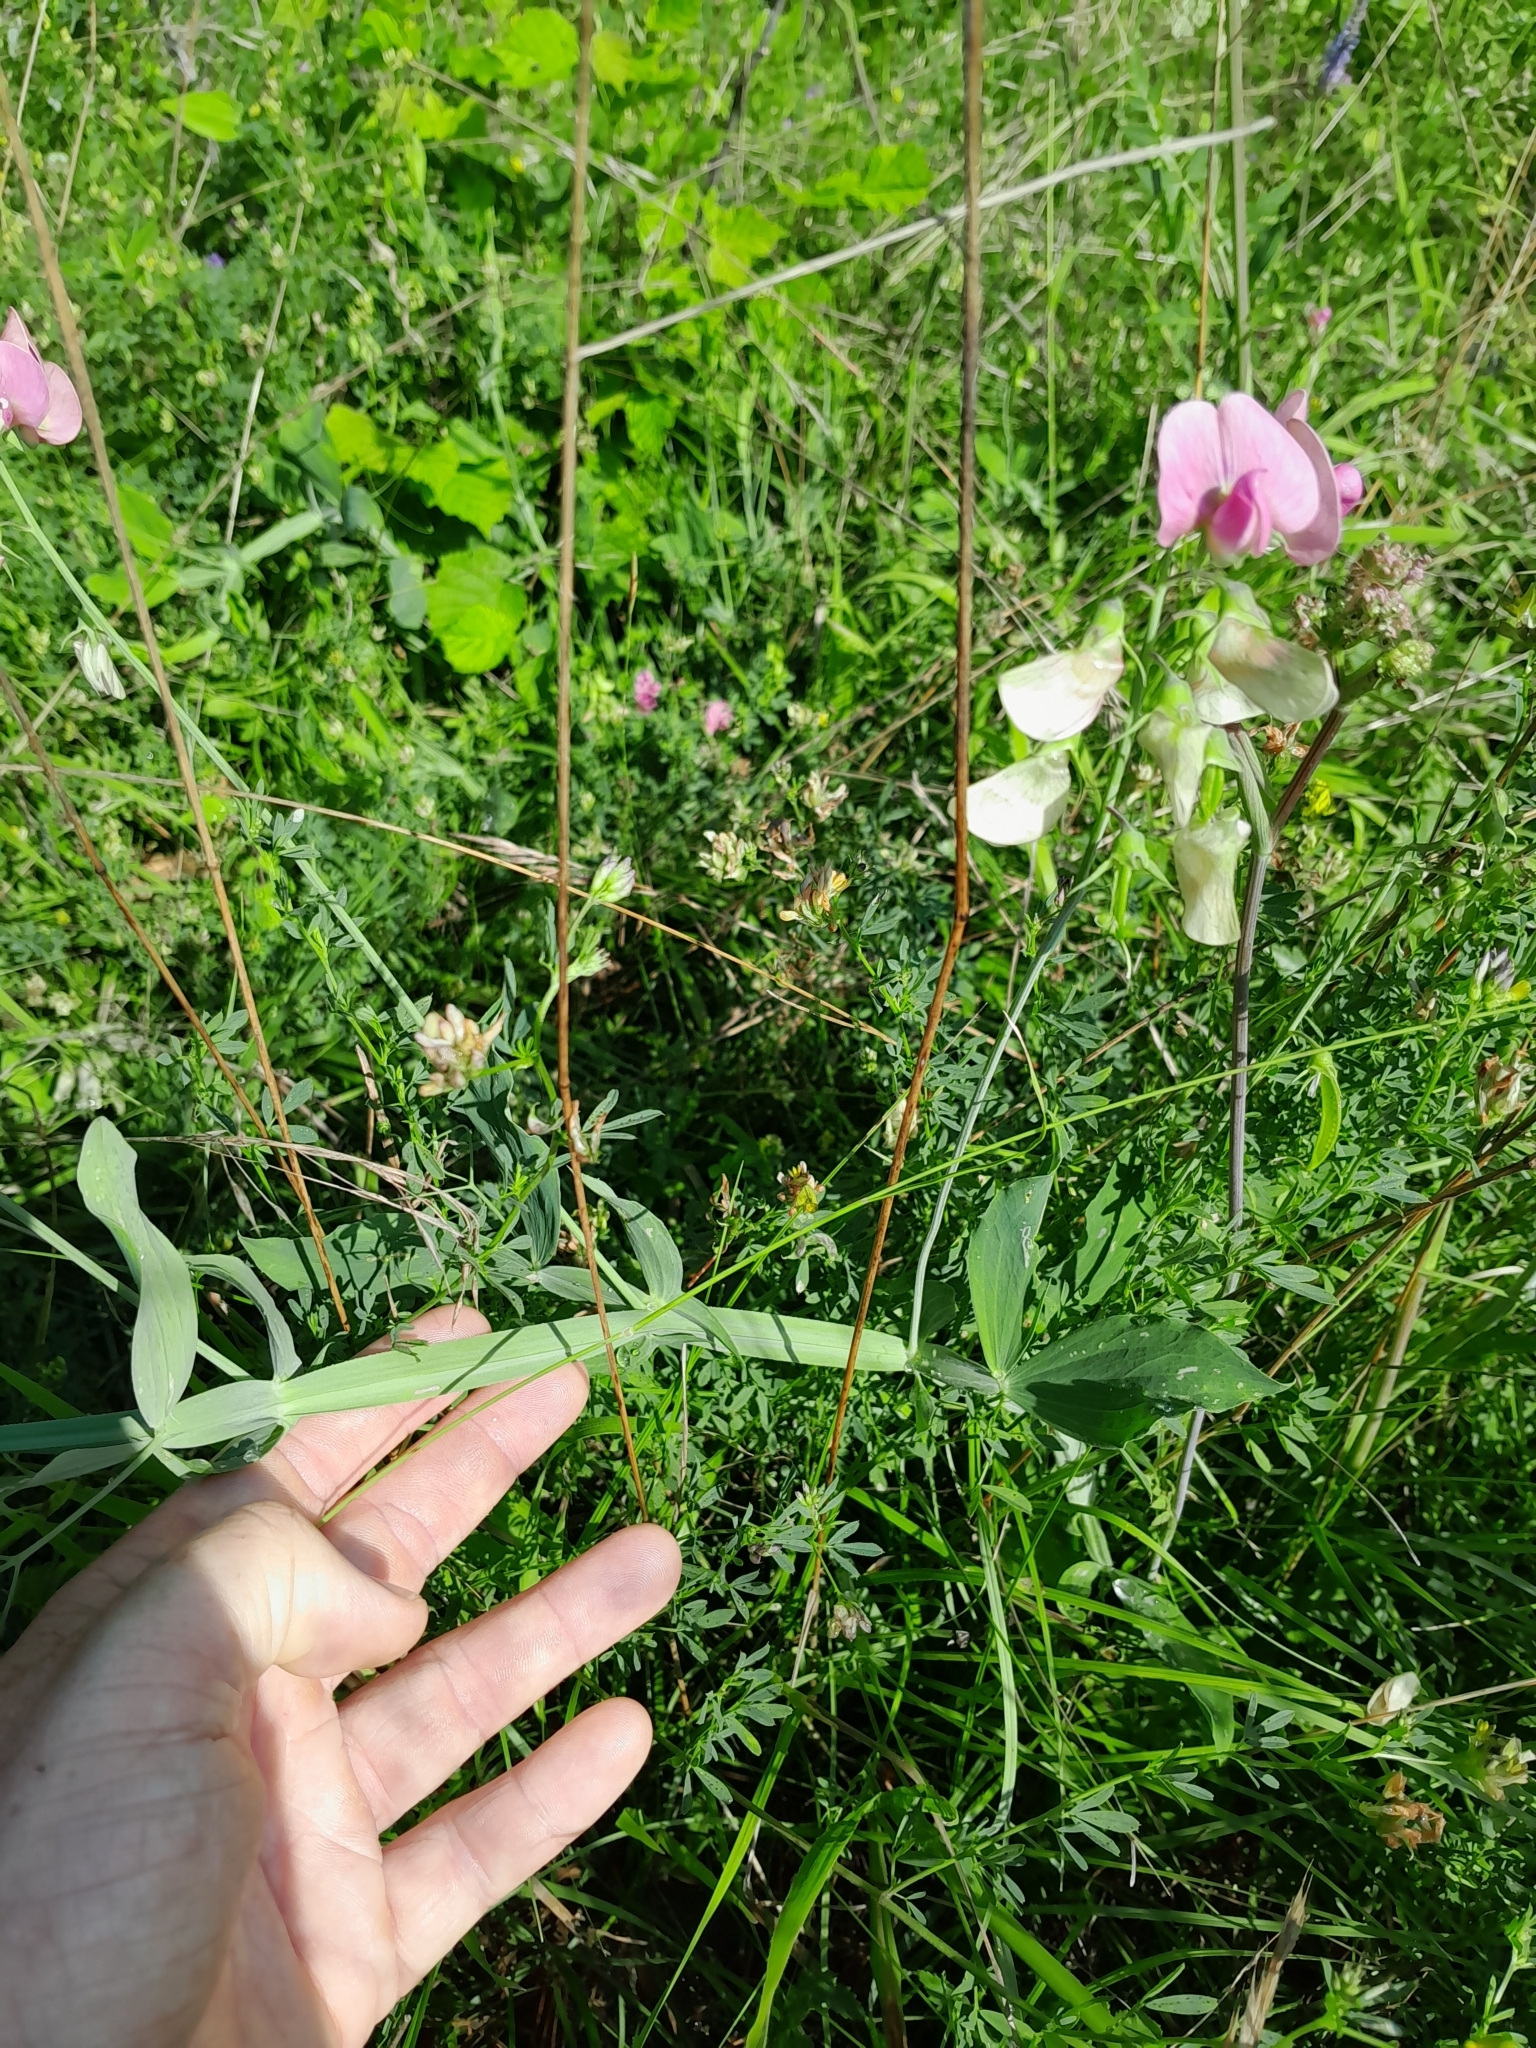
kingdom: Plantae
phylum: Tracheophyta
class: Magnoliopsida
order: Fabales
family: Fabaceae
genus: Lathyrus
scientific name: Lathyrus latifolius
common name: Perennial pea
